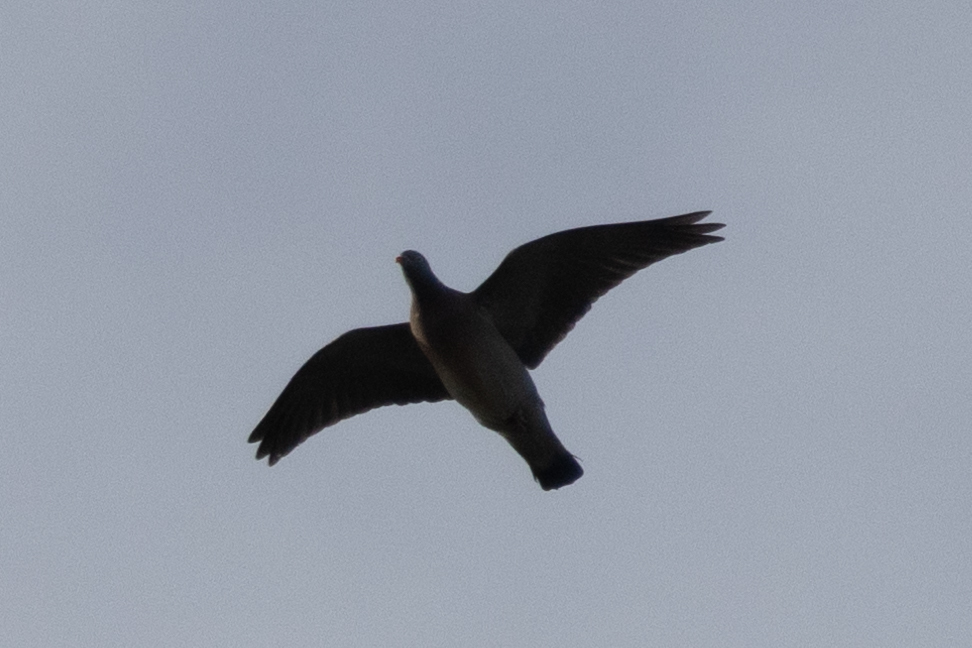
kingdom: Animalia
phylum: Chordata
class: Aves
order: Columbiformes
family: Columbidae
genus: Columba
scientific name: Columba palumbus
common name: Common wood pigeon
